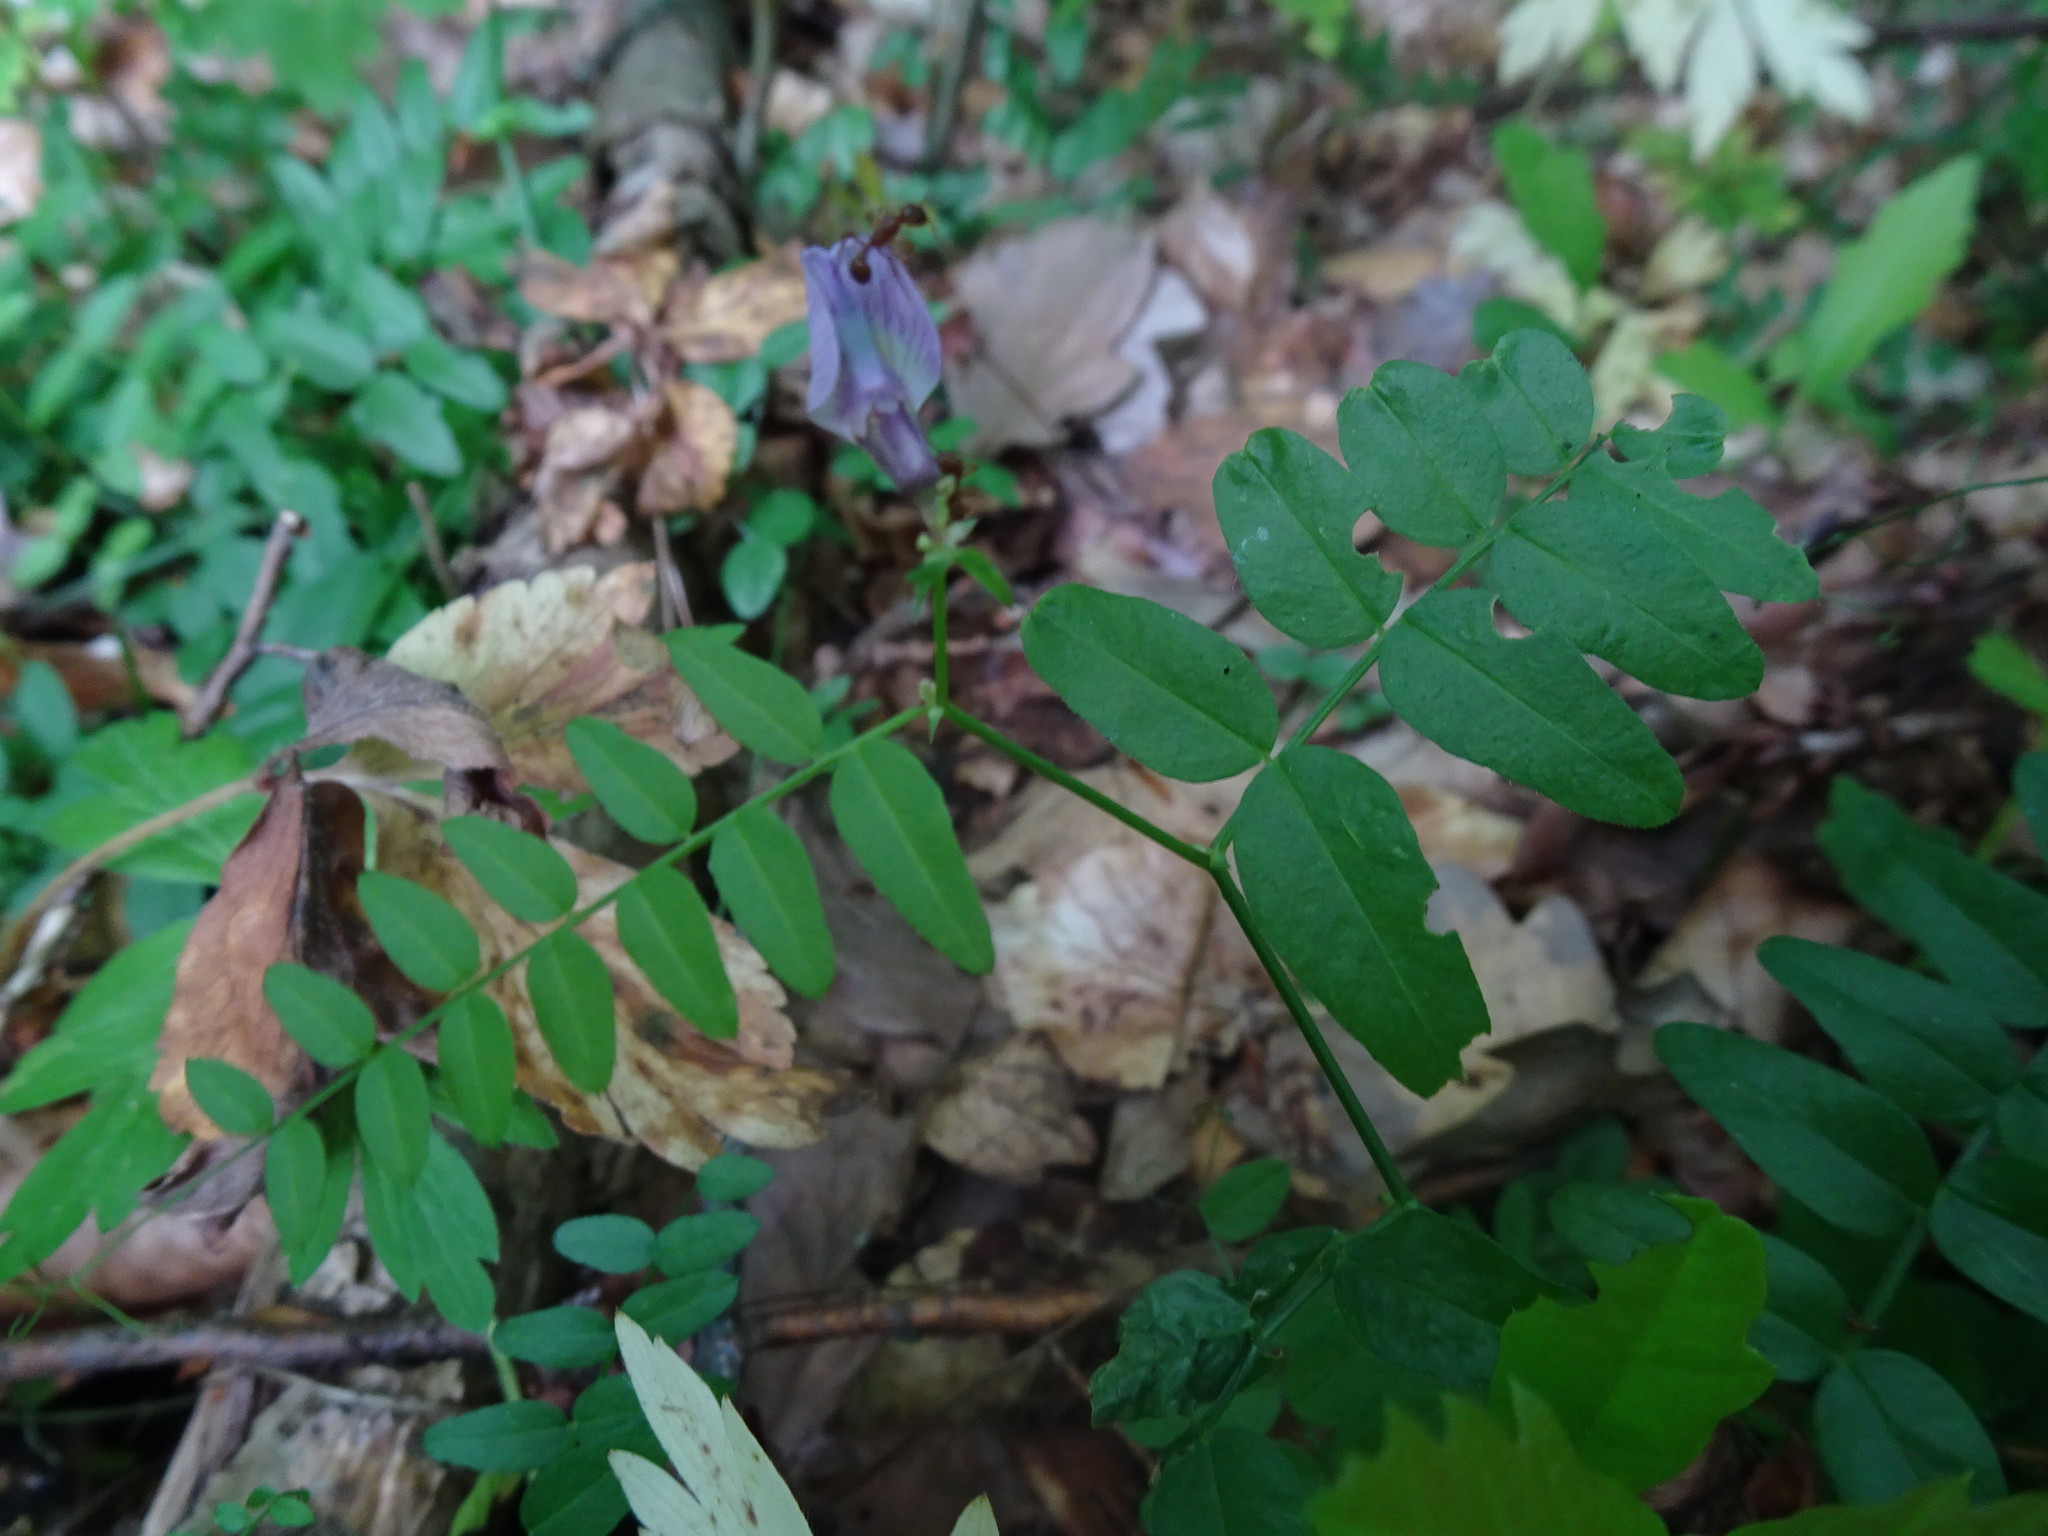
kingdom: Plantae
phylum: Tracheophyta
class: Magnoliopsida
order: Fabales
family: Fabaceae
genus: Vicia
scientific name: Vicia sepium
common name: Bush vetch
